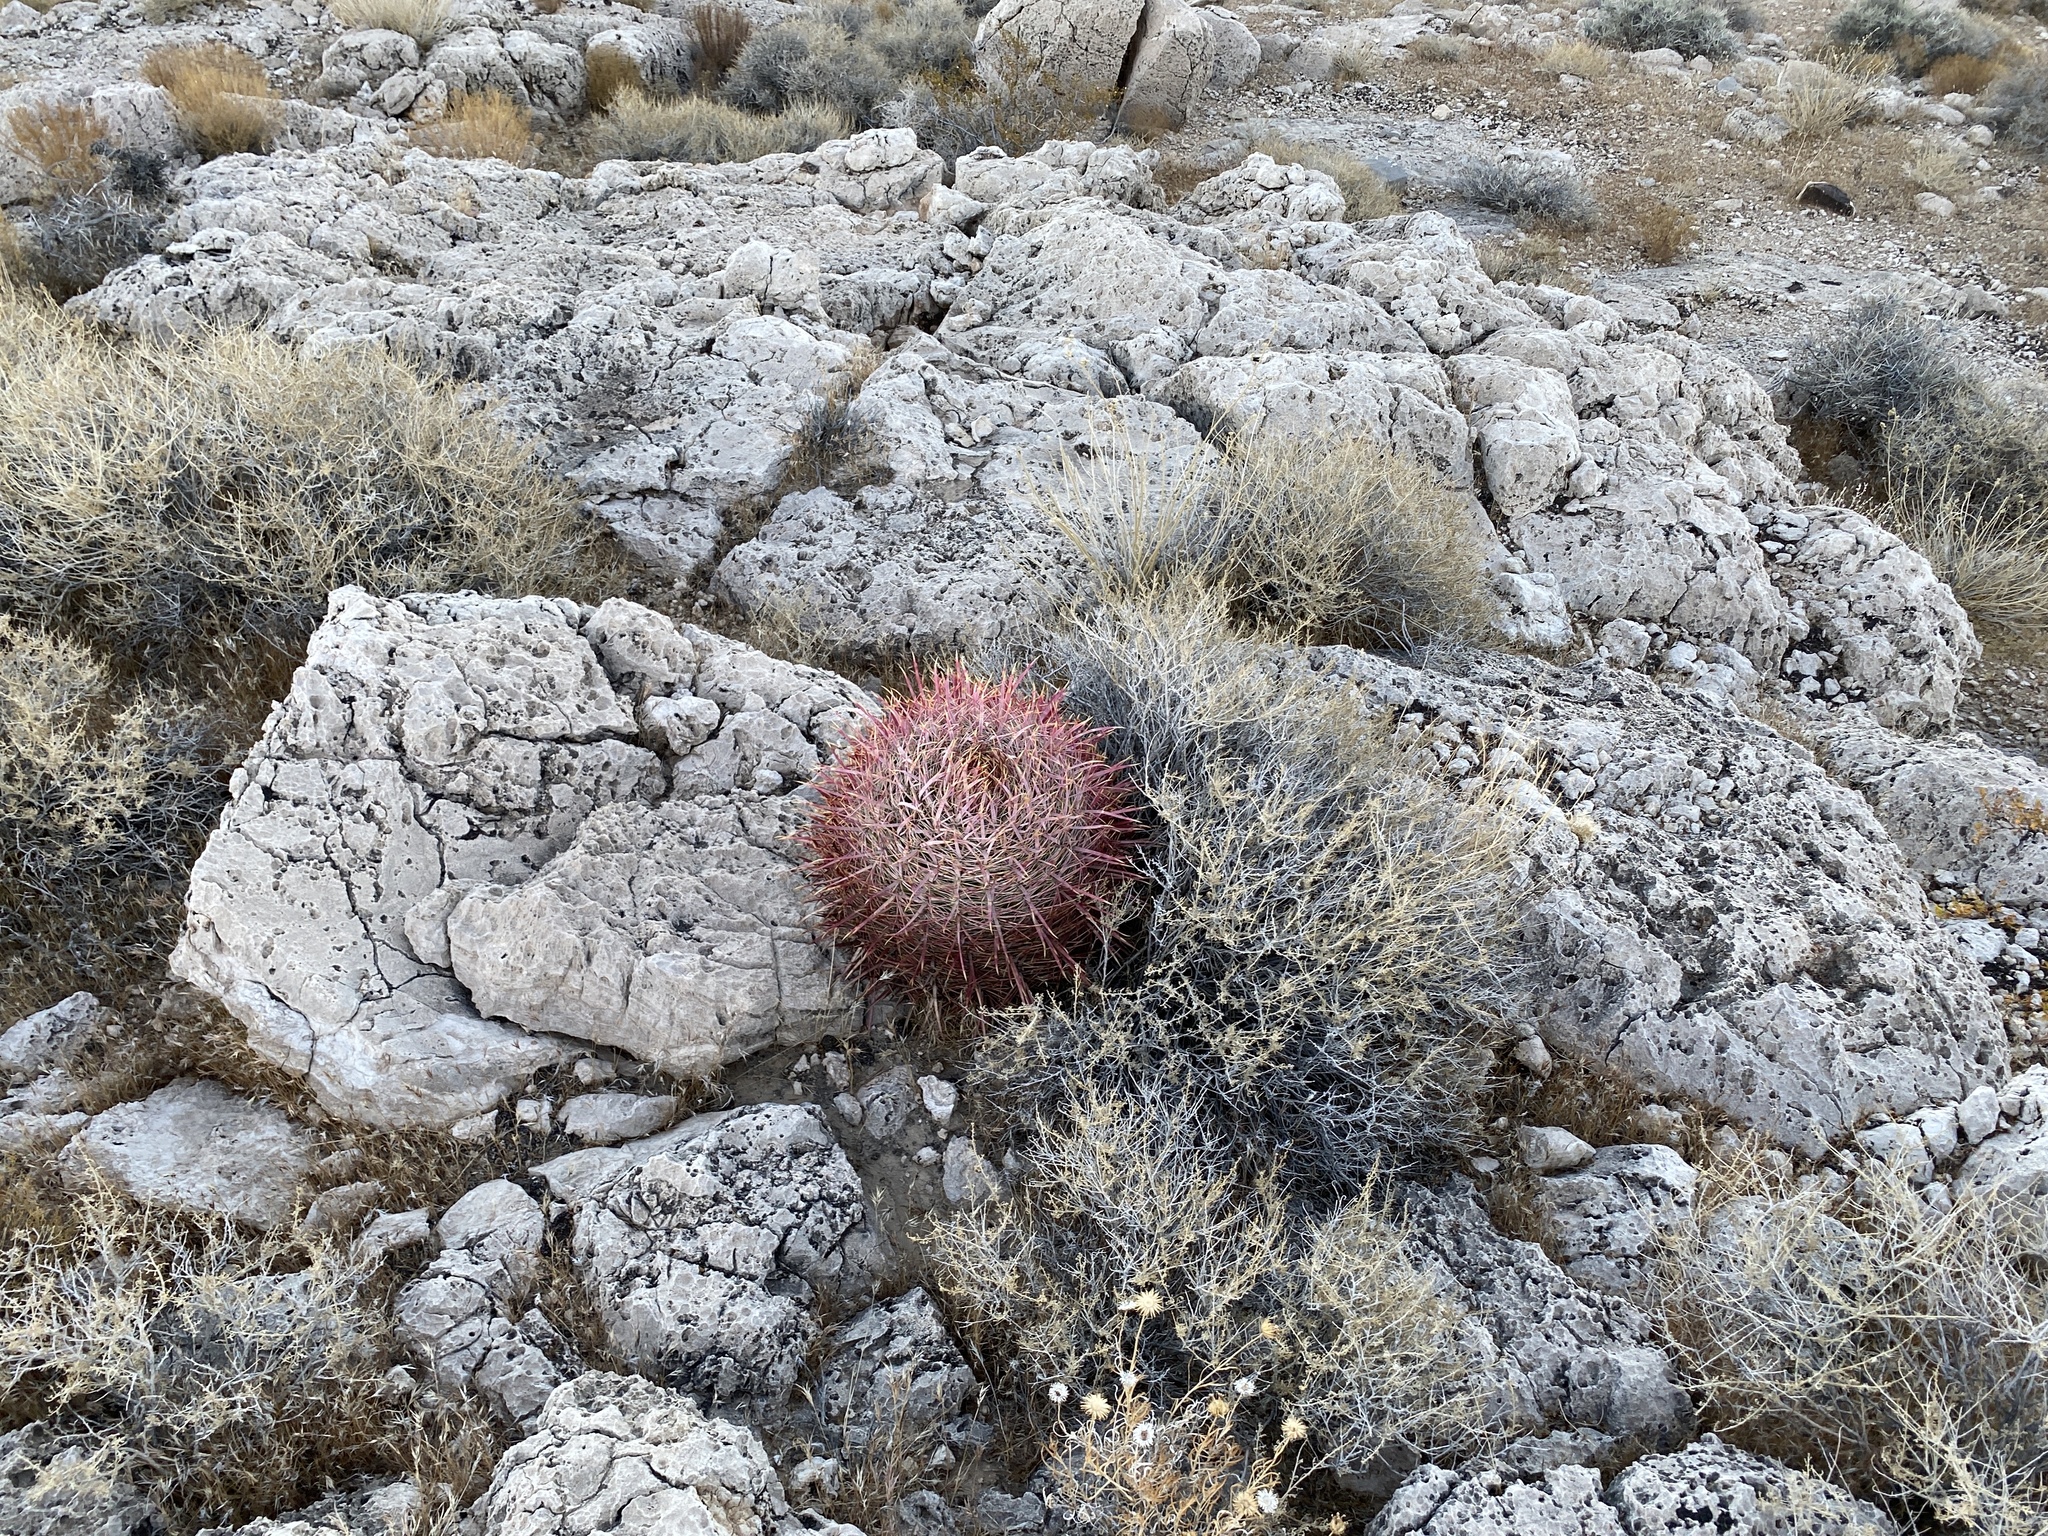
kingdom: Plantae
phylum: Tracheophyta
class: Magnoliopsida
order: Caryophyllales
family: Cactaceae
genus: Ferocactus
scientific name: Ferocactus cylindraceus
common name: California barrel cactus
